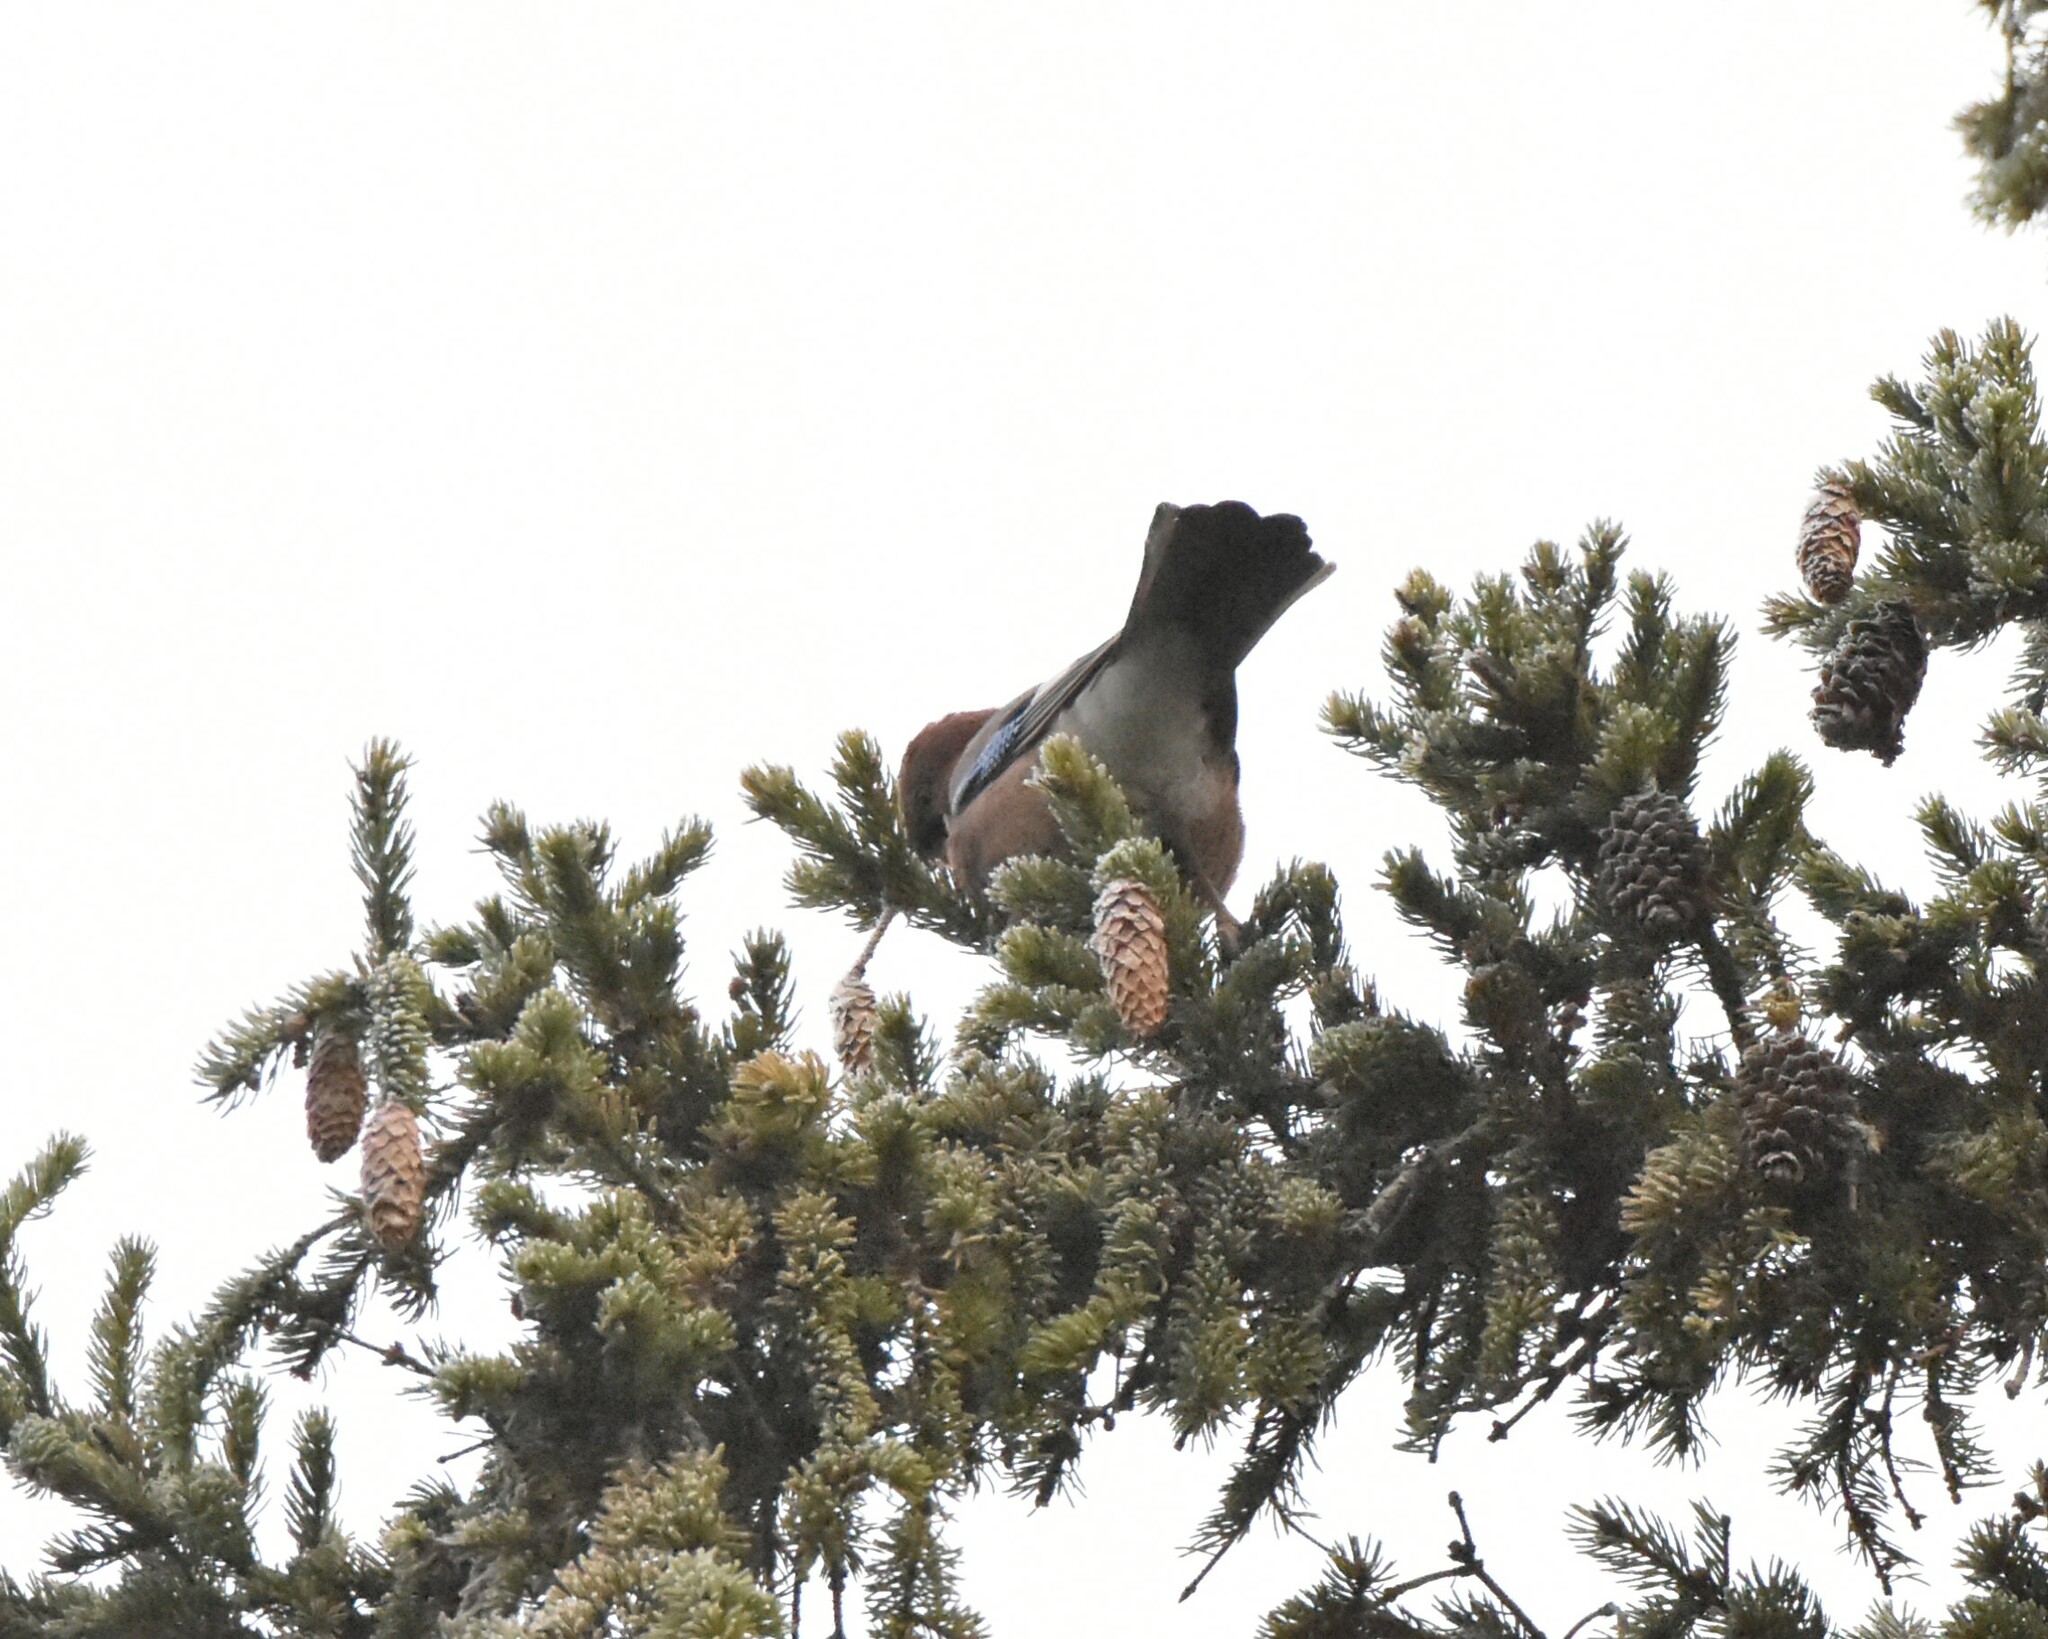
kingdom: Animalia
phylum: Chordata
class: Aves
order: Passeriformes
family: Corvidae
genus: Garrulus
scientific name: Garrulus glandarius
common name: Eurasian jay
